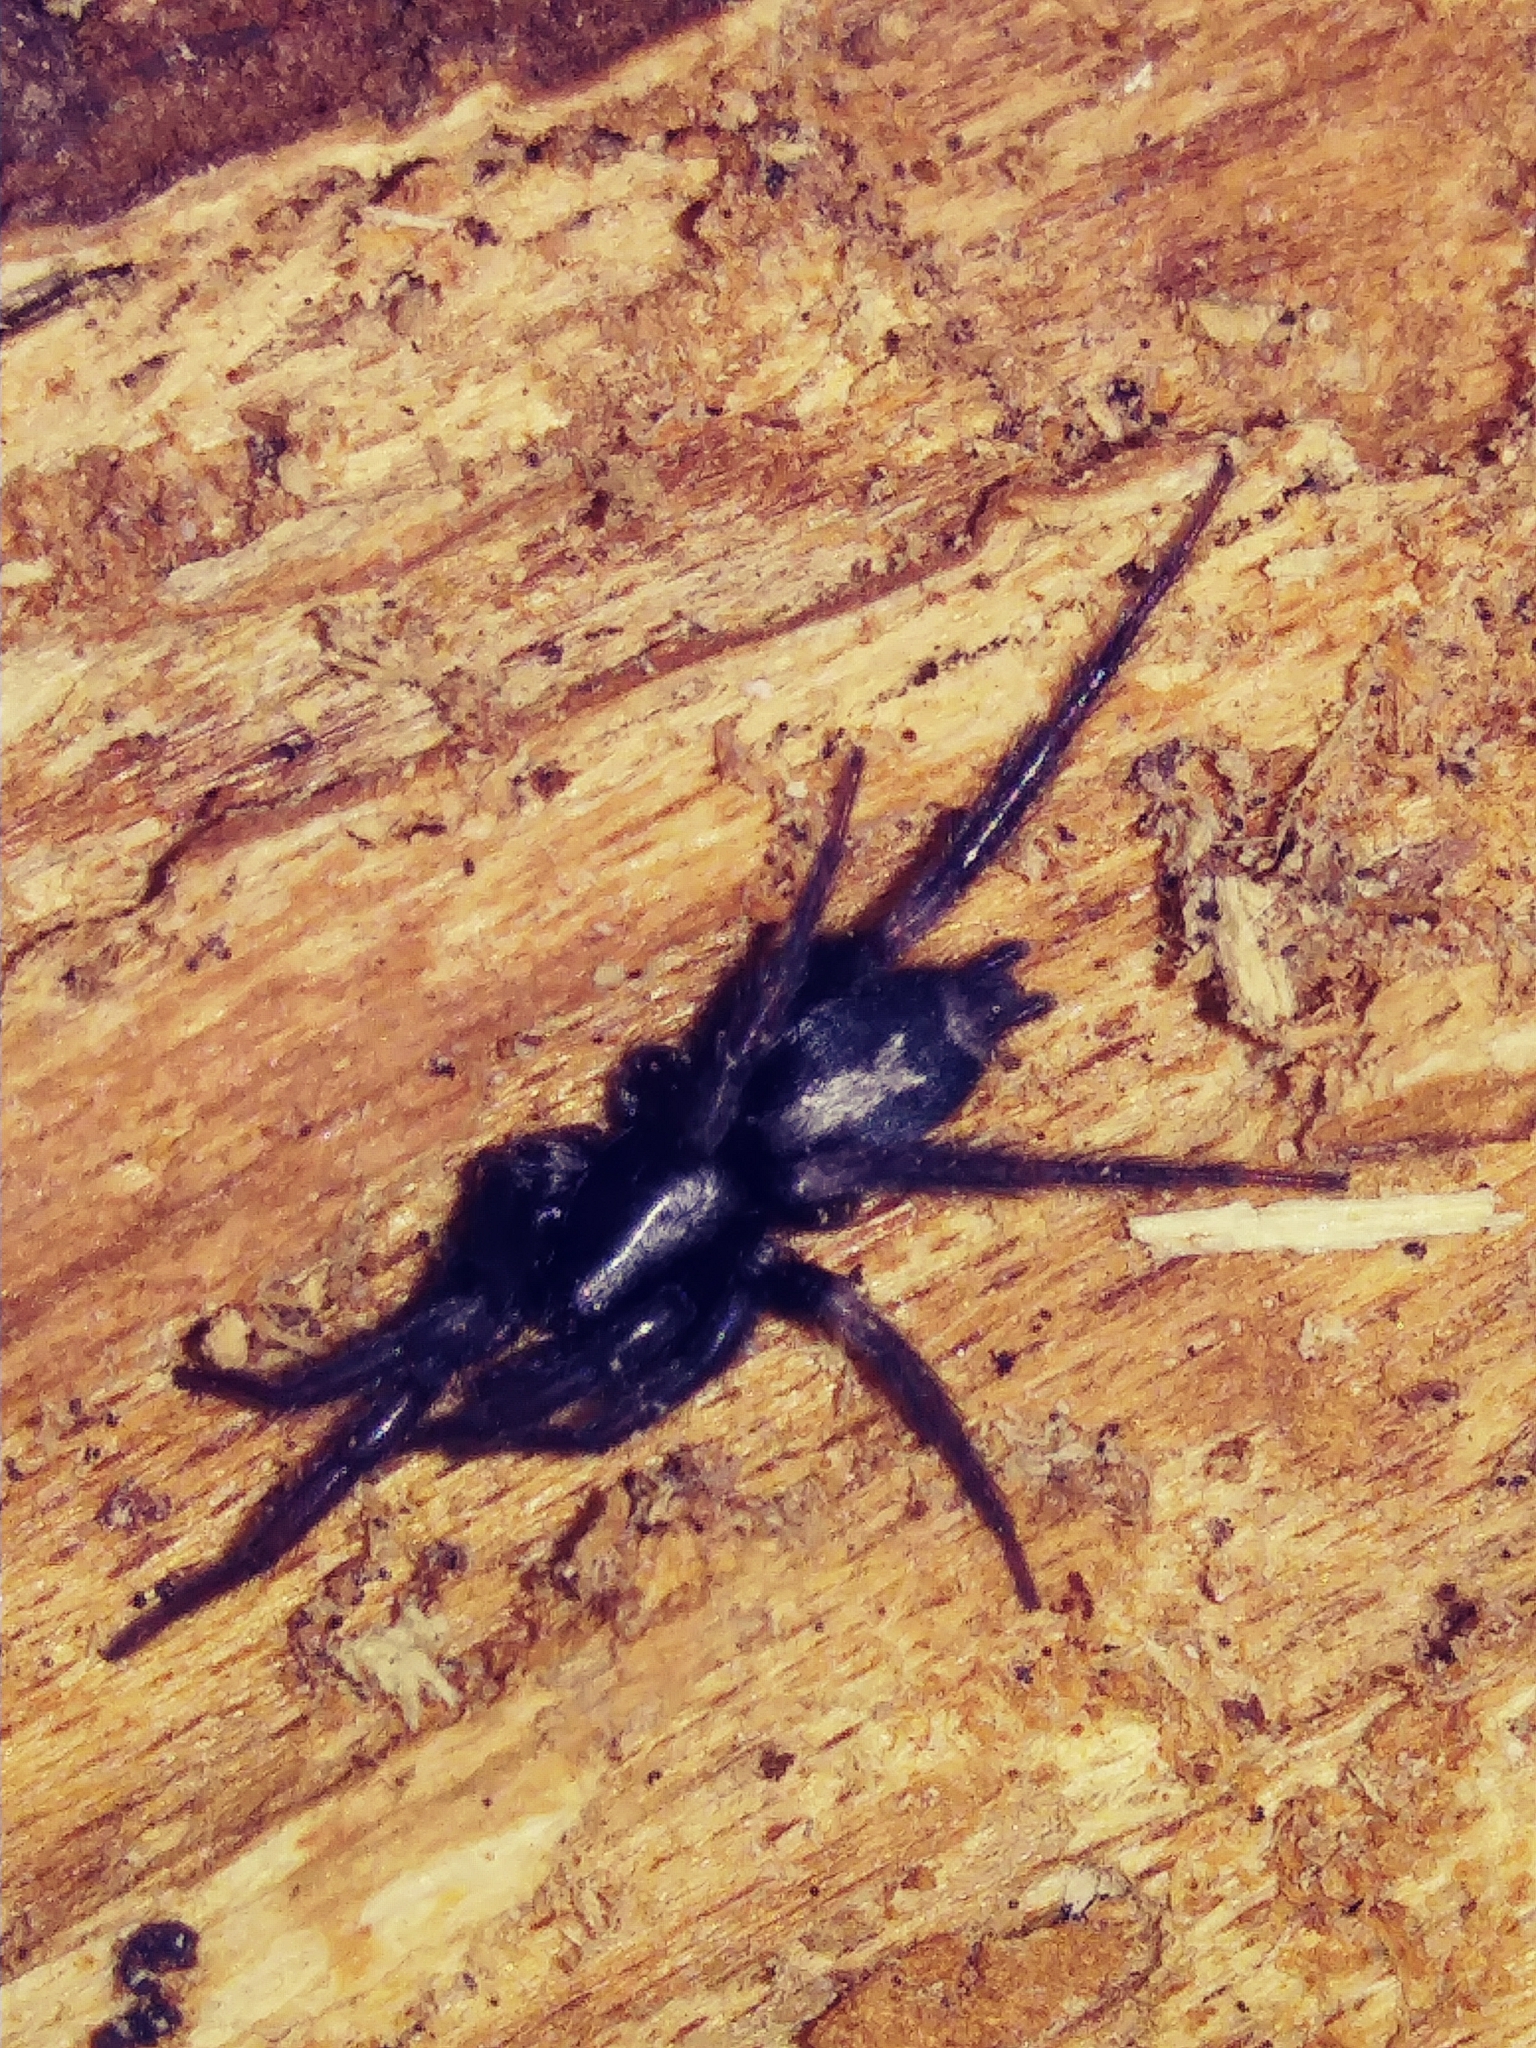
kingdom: Animalia
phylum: Arthropoda
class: Arachnida
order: Araneae
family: Gnaphosidae
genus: Herpyllus
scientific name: Herpyllus ecclesiasticus
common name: Eastern parson spider
